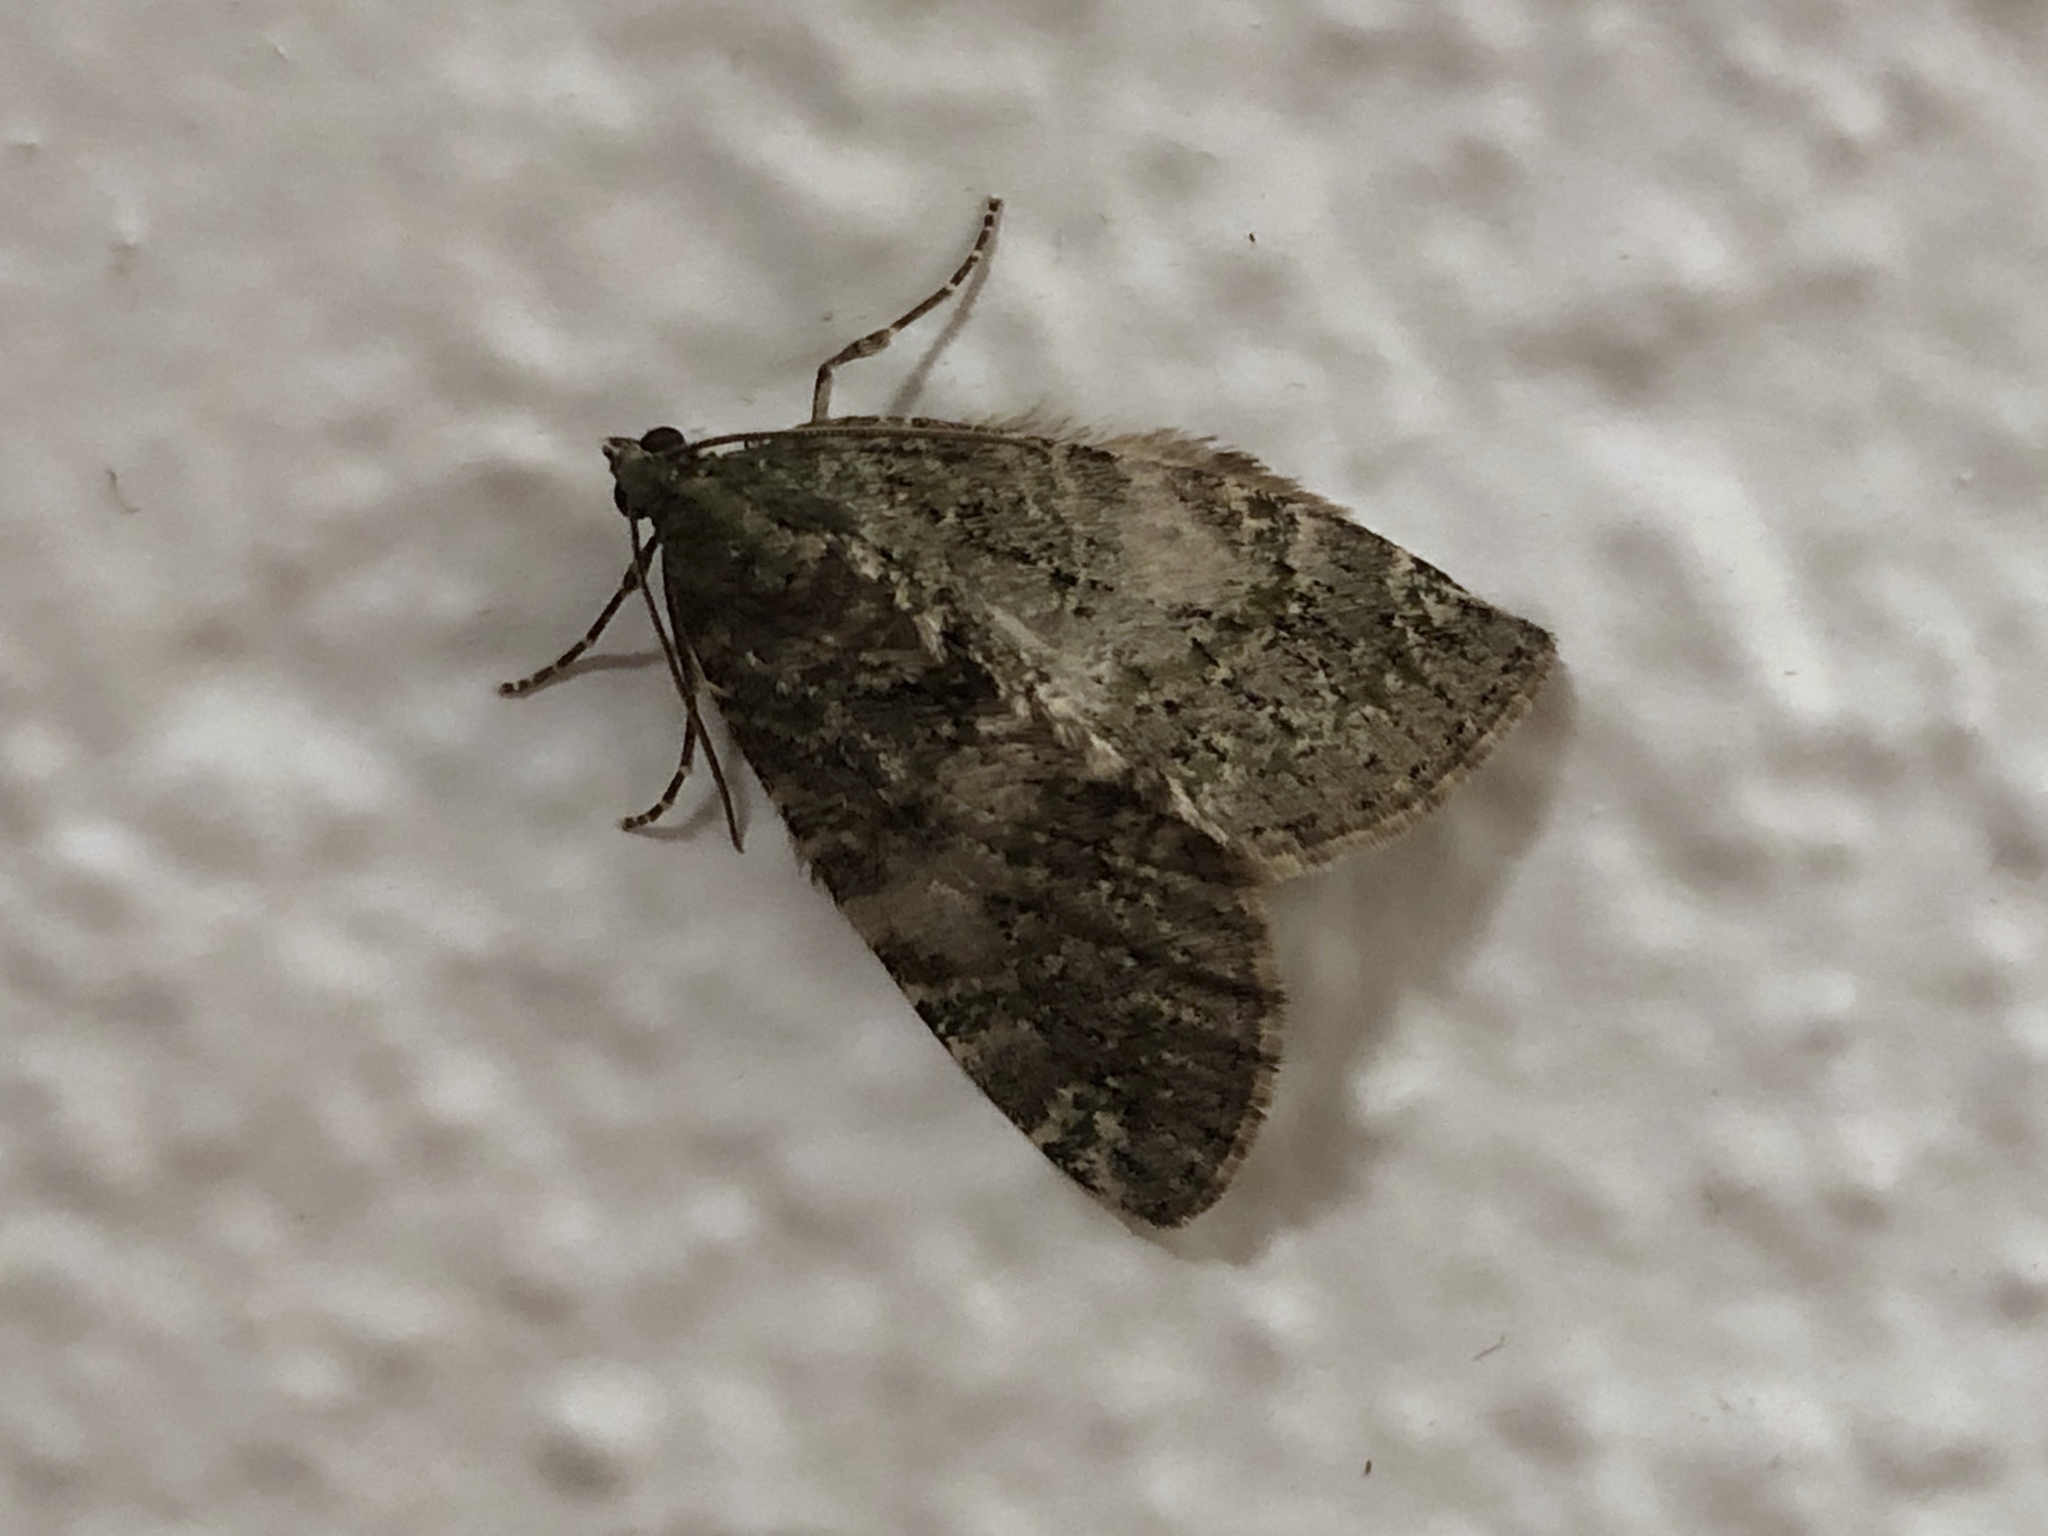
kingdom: Animalia
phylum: Arthropoda
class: Insecta
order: Lepidoptera
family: Geometridae
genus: Hydriomena
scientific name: Hydriomena nubilofasciata
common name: Oak winter highflier moth
